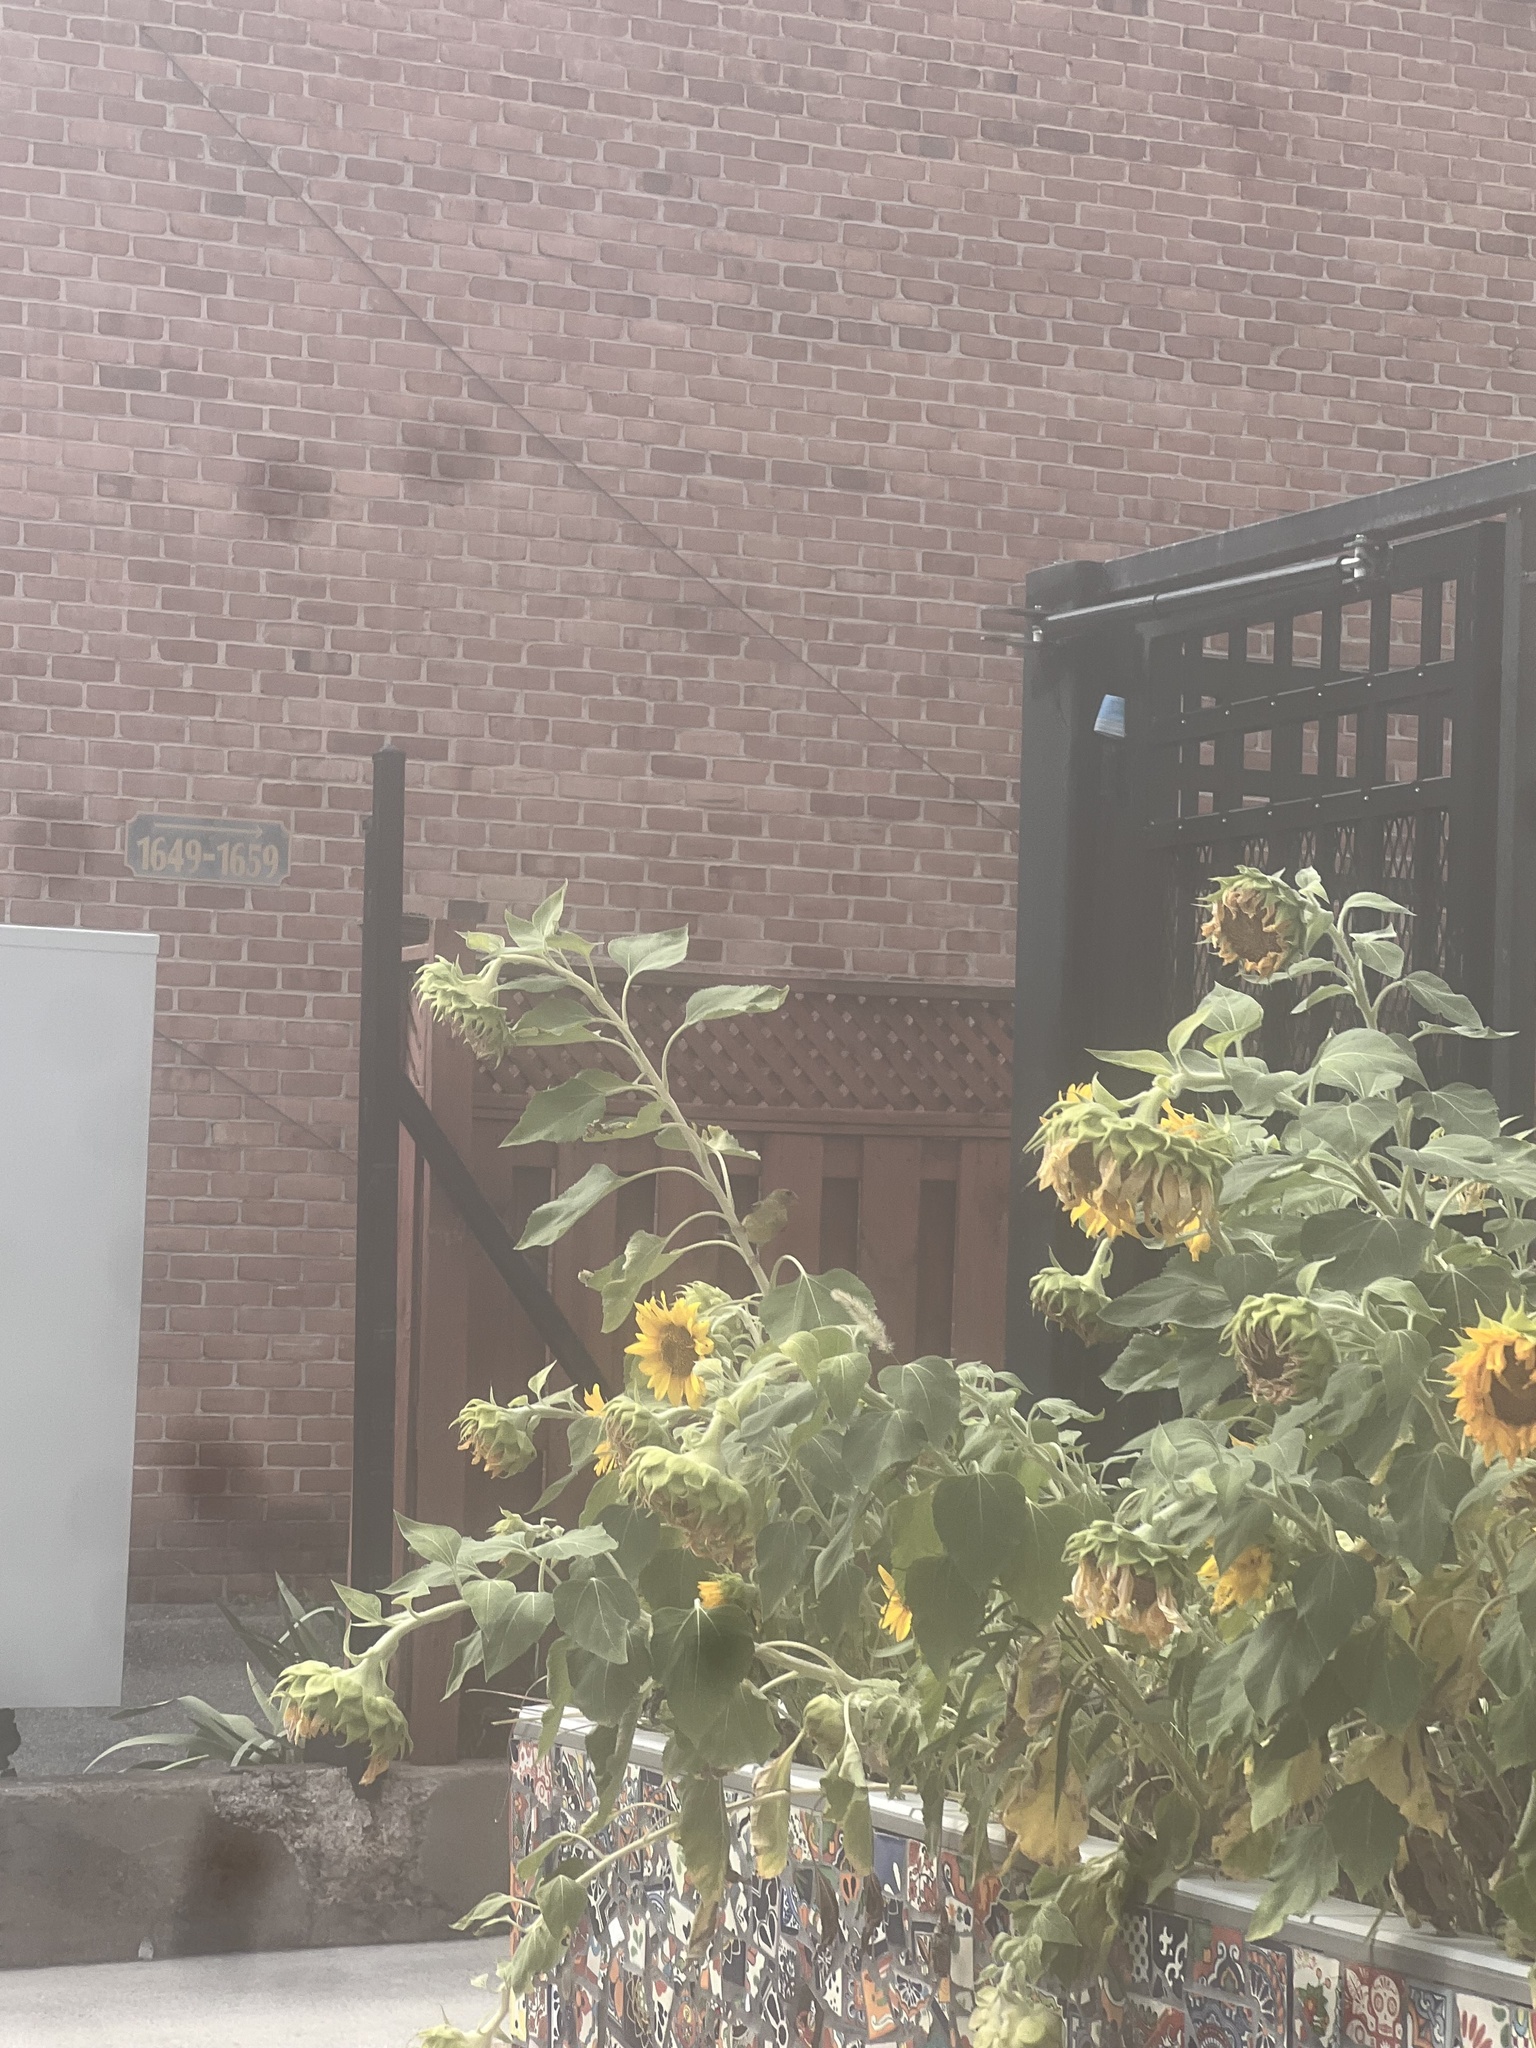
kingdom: Animalia
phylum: Chordata
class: Aves
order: Passeriformes
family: Fringillidae
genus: Spinus
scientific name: Spinus tristis
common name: American goldfinch
